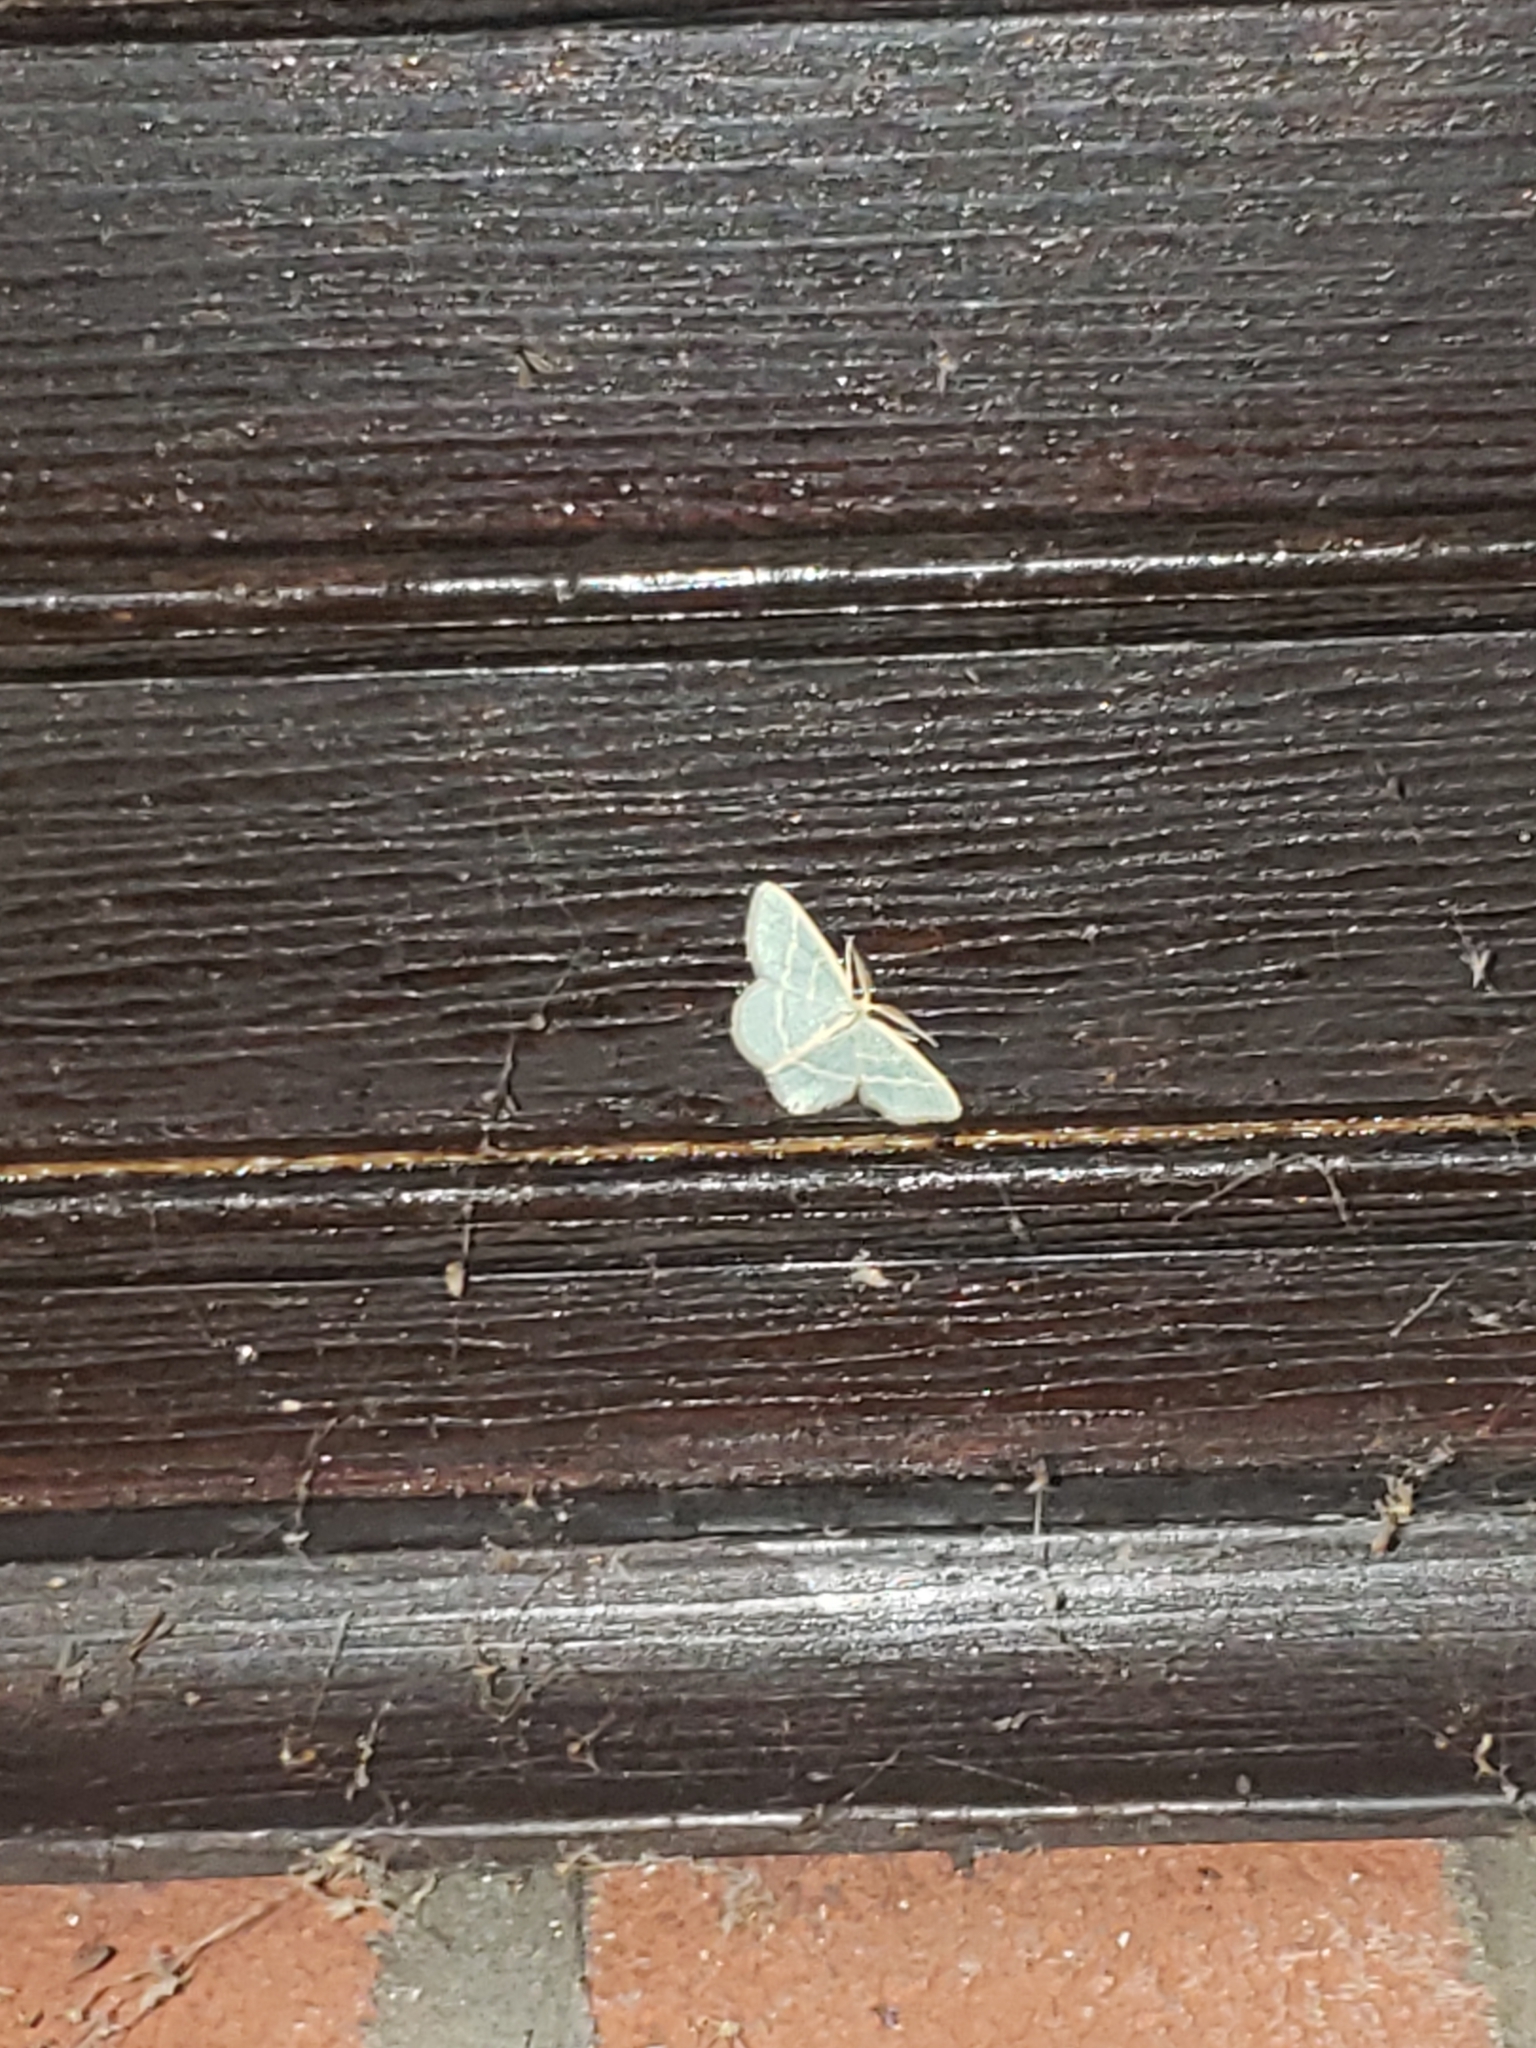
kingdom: Animalia
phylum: Arthropoda
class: Insecta
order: Lepidoptera
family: Geometridae
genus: Chlorochlamys
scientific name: Chlorochlamys chloroleucaria
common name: Blackberry looper
